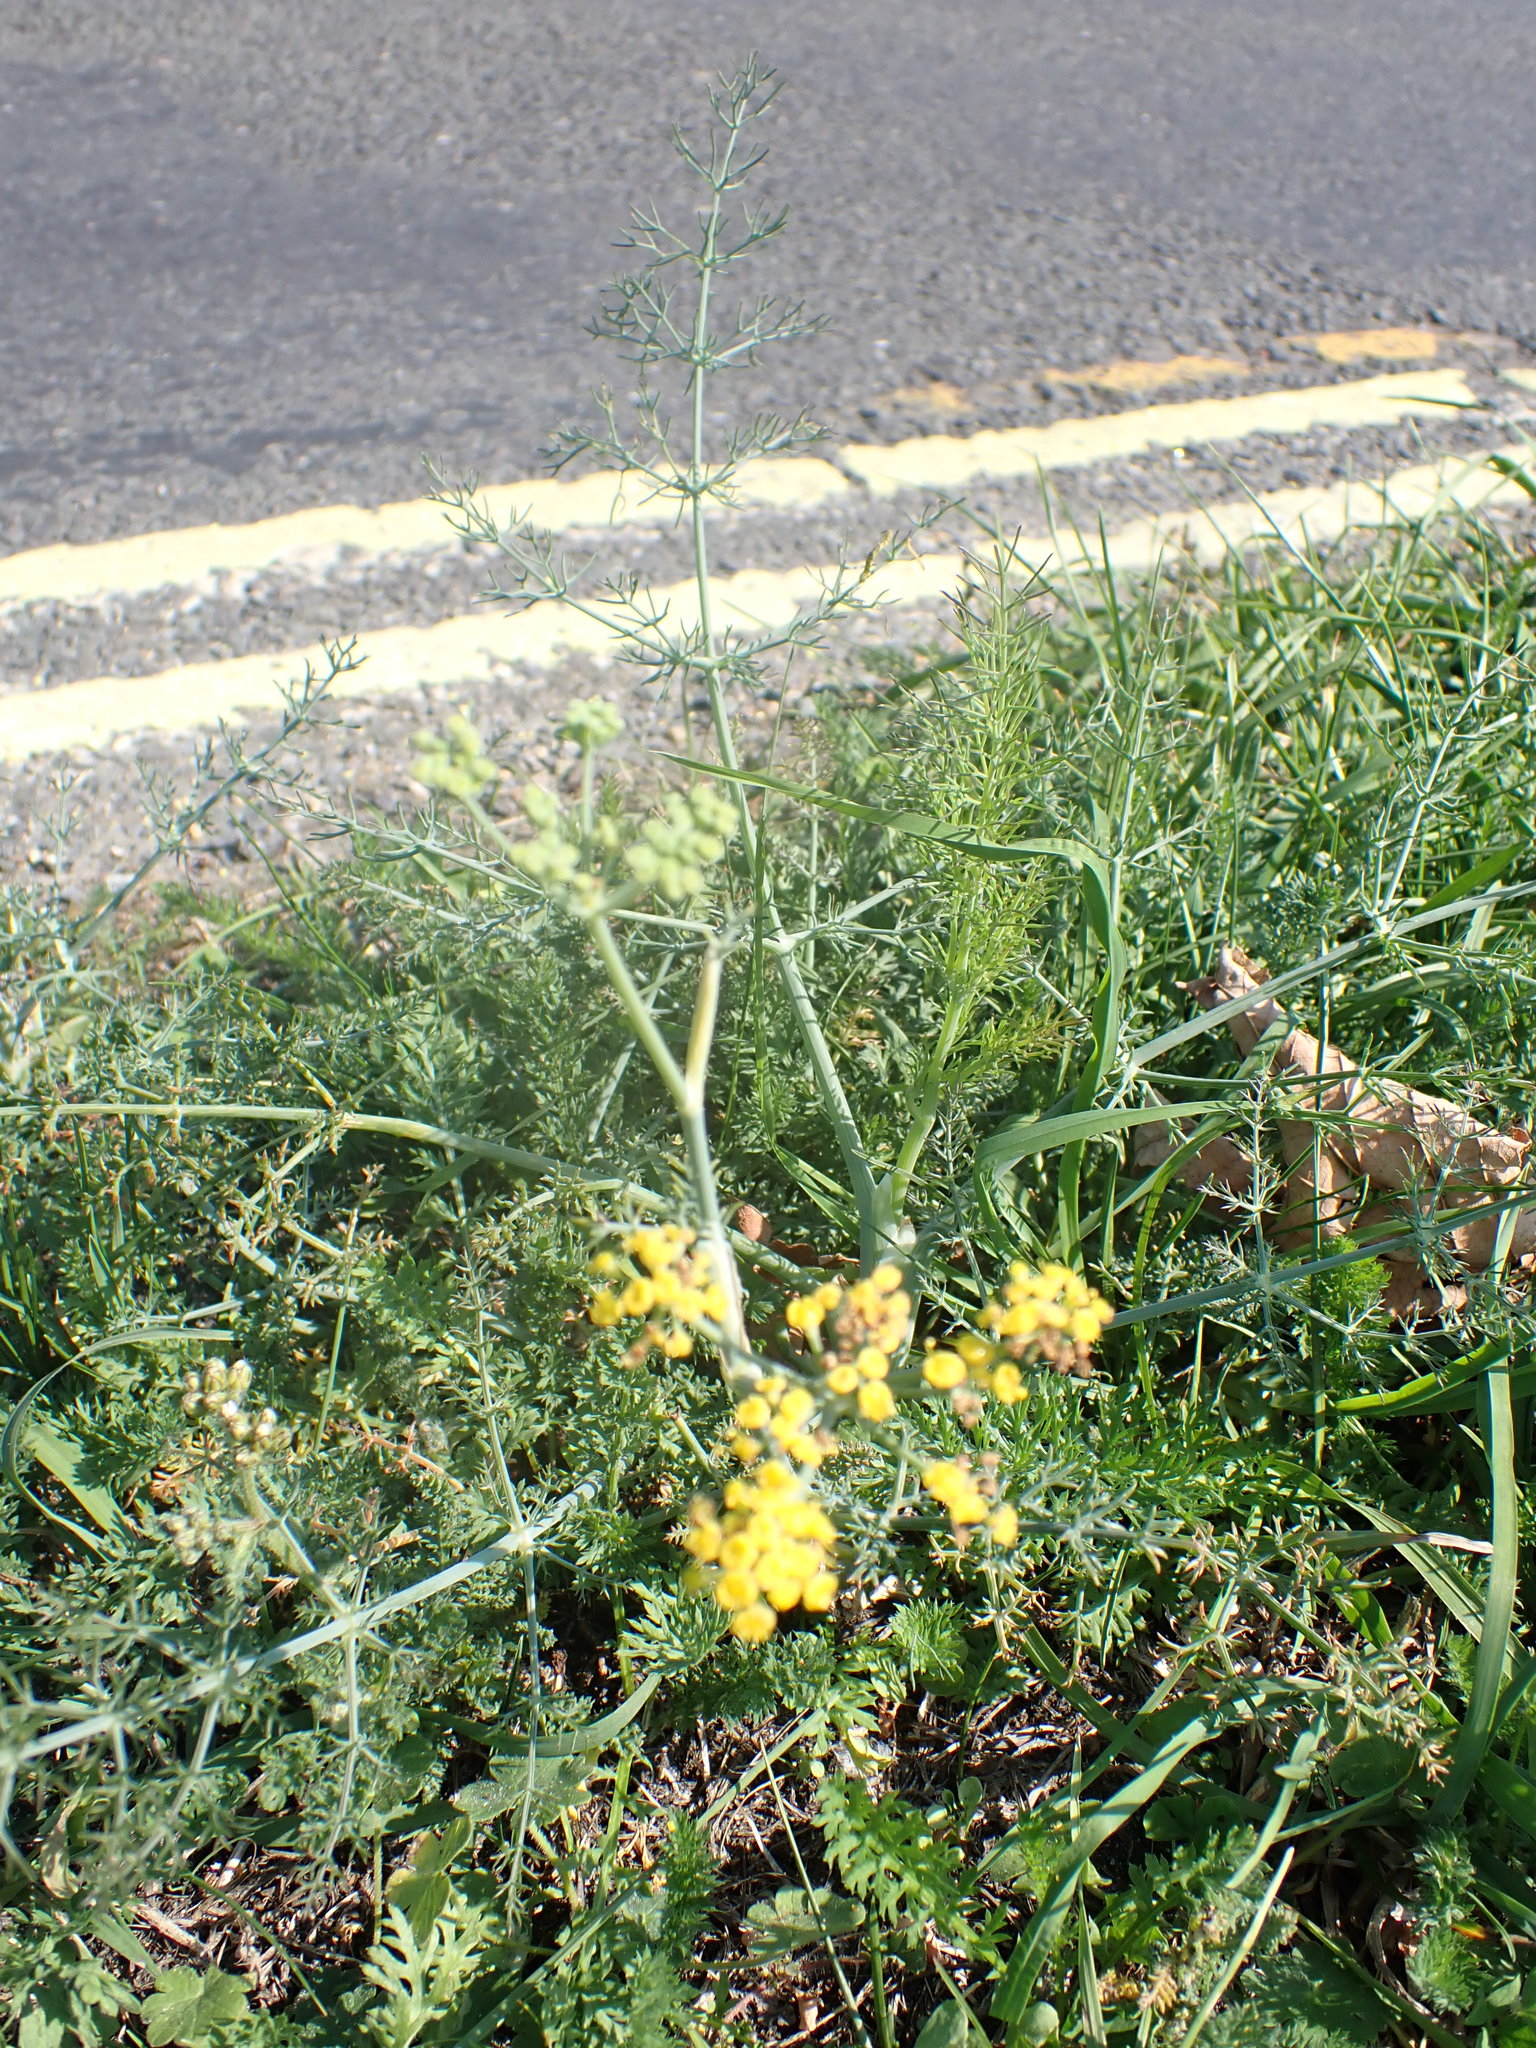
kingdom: Plantae
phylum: Tracheophyta
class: Magnoliopsida
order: Apiales
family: Apiaceae
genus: Foeniculum
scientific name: Foeniculum vulgare
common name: Fennel
